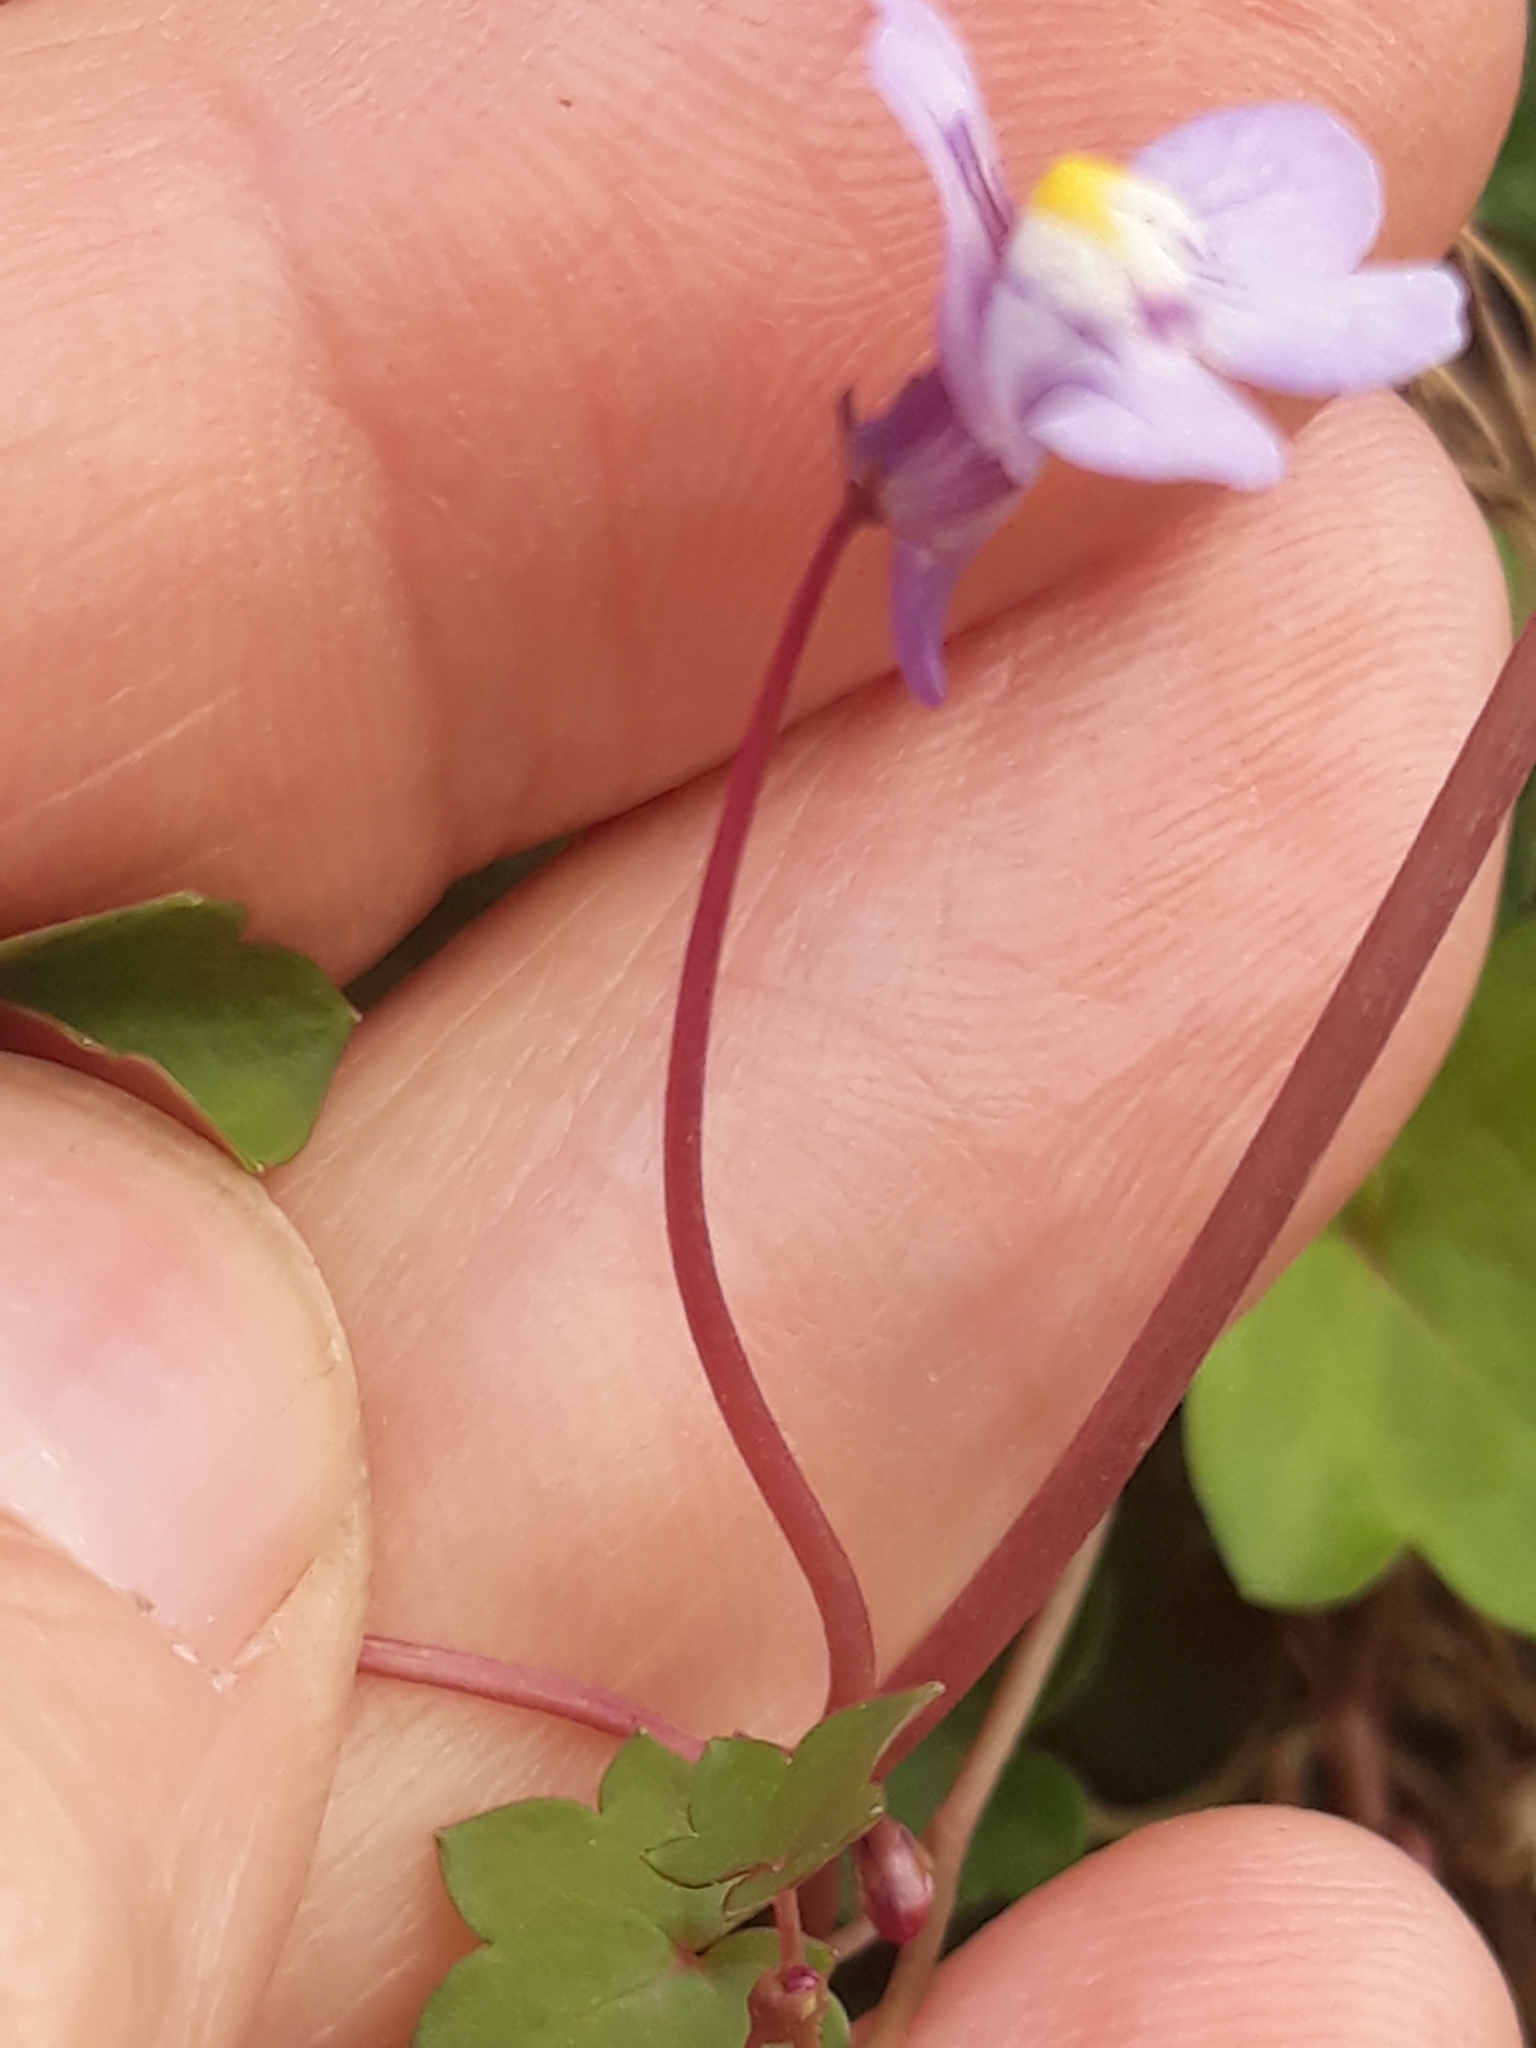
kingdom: Plantae
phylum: Tracheophyta
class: Magnoliopsida
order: Lamiales
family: Plantaginaceae
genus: Cymbalaria
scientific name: Cymbalaria muralis
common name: Ivy-leaved toadflax
